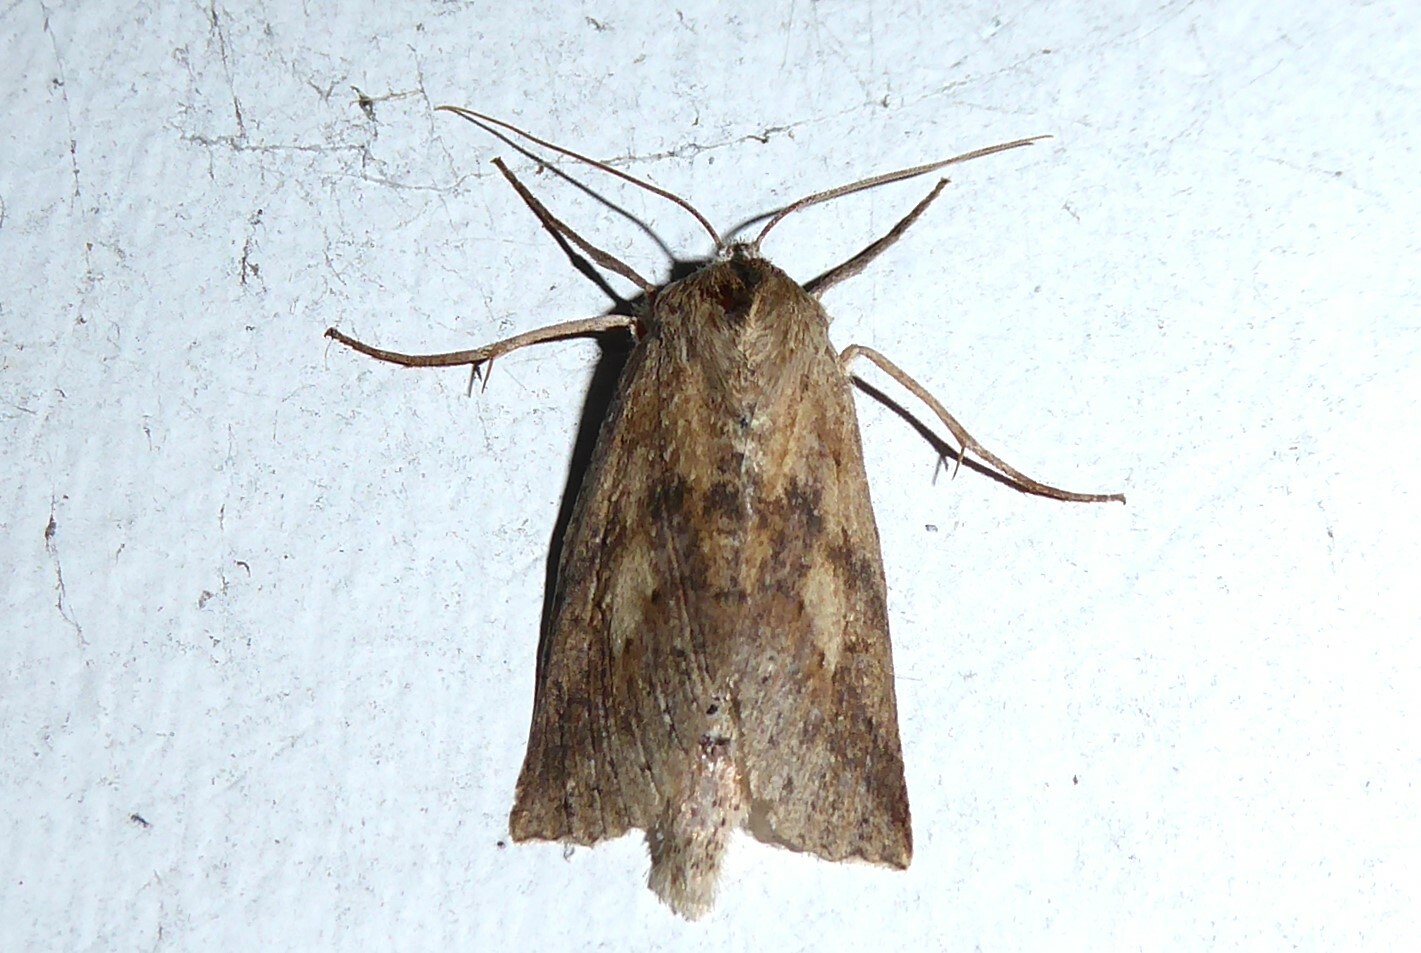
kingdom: Animalia
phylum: Arthropoda
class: Insecta
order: Lepidoptera
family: Geometridae
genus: Declana
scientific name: Declana leptomera
